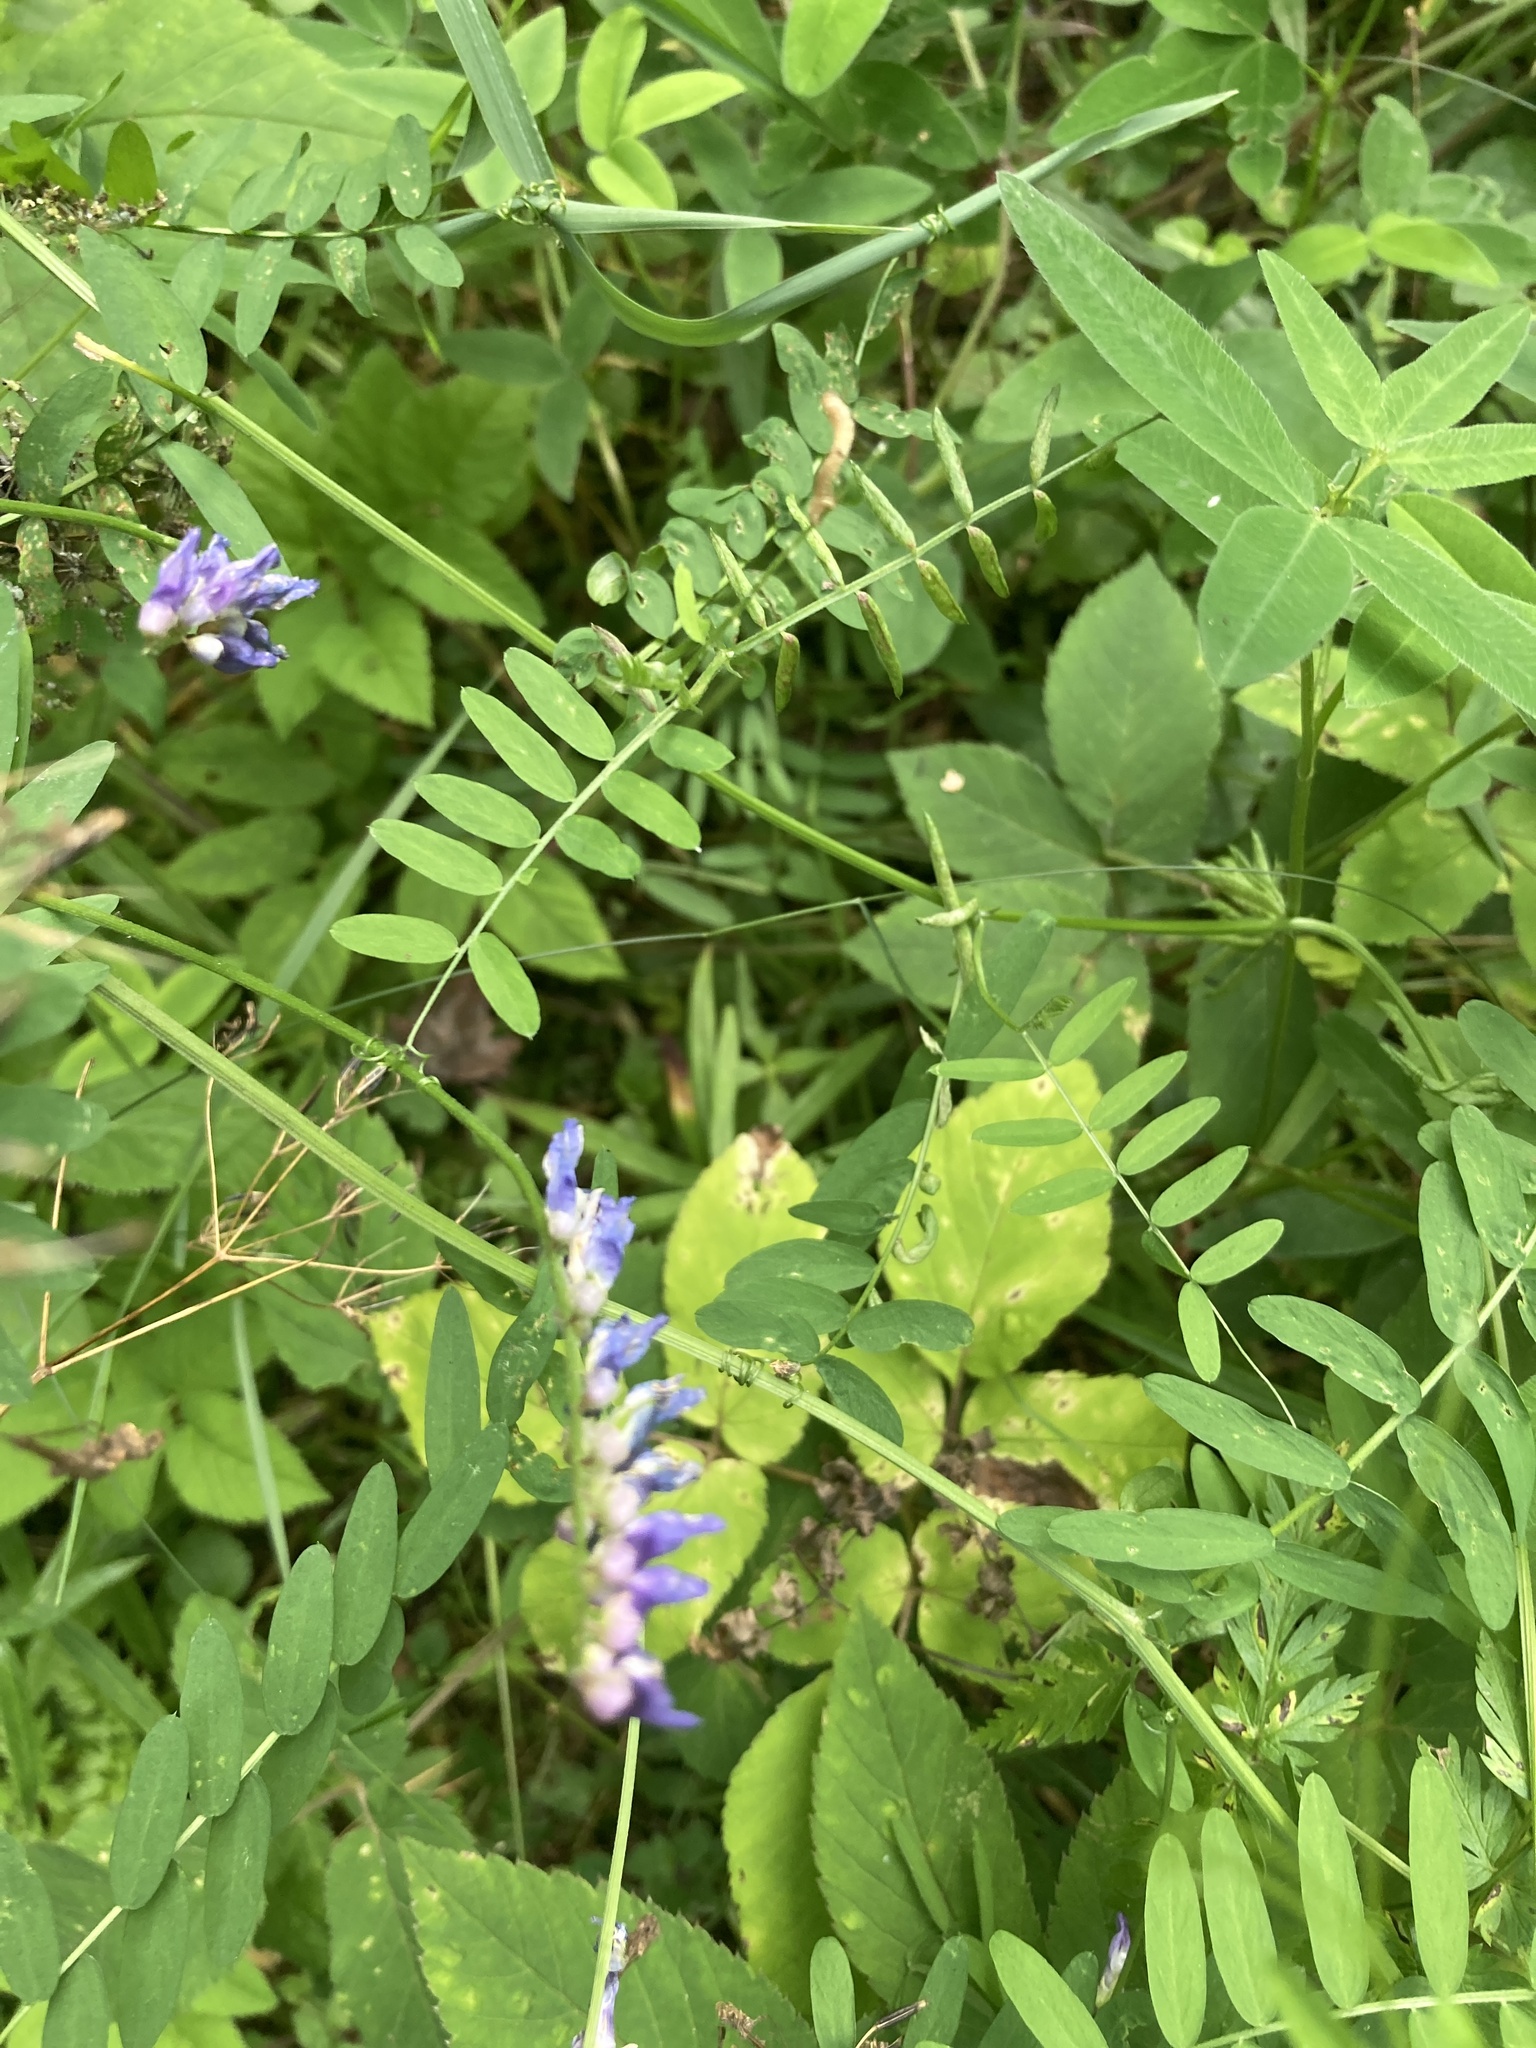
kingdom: Plantae
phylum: Tracheophyta
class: Magnoliopsida
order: Fabales
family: Fabaceae
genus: Vicia
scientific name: Vicia cracca
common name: Bird vetch
